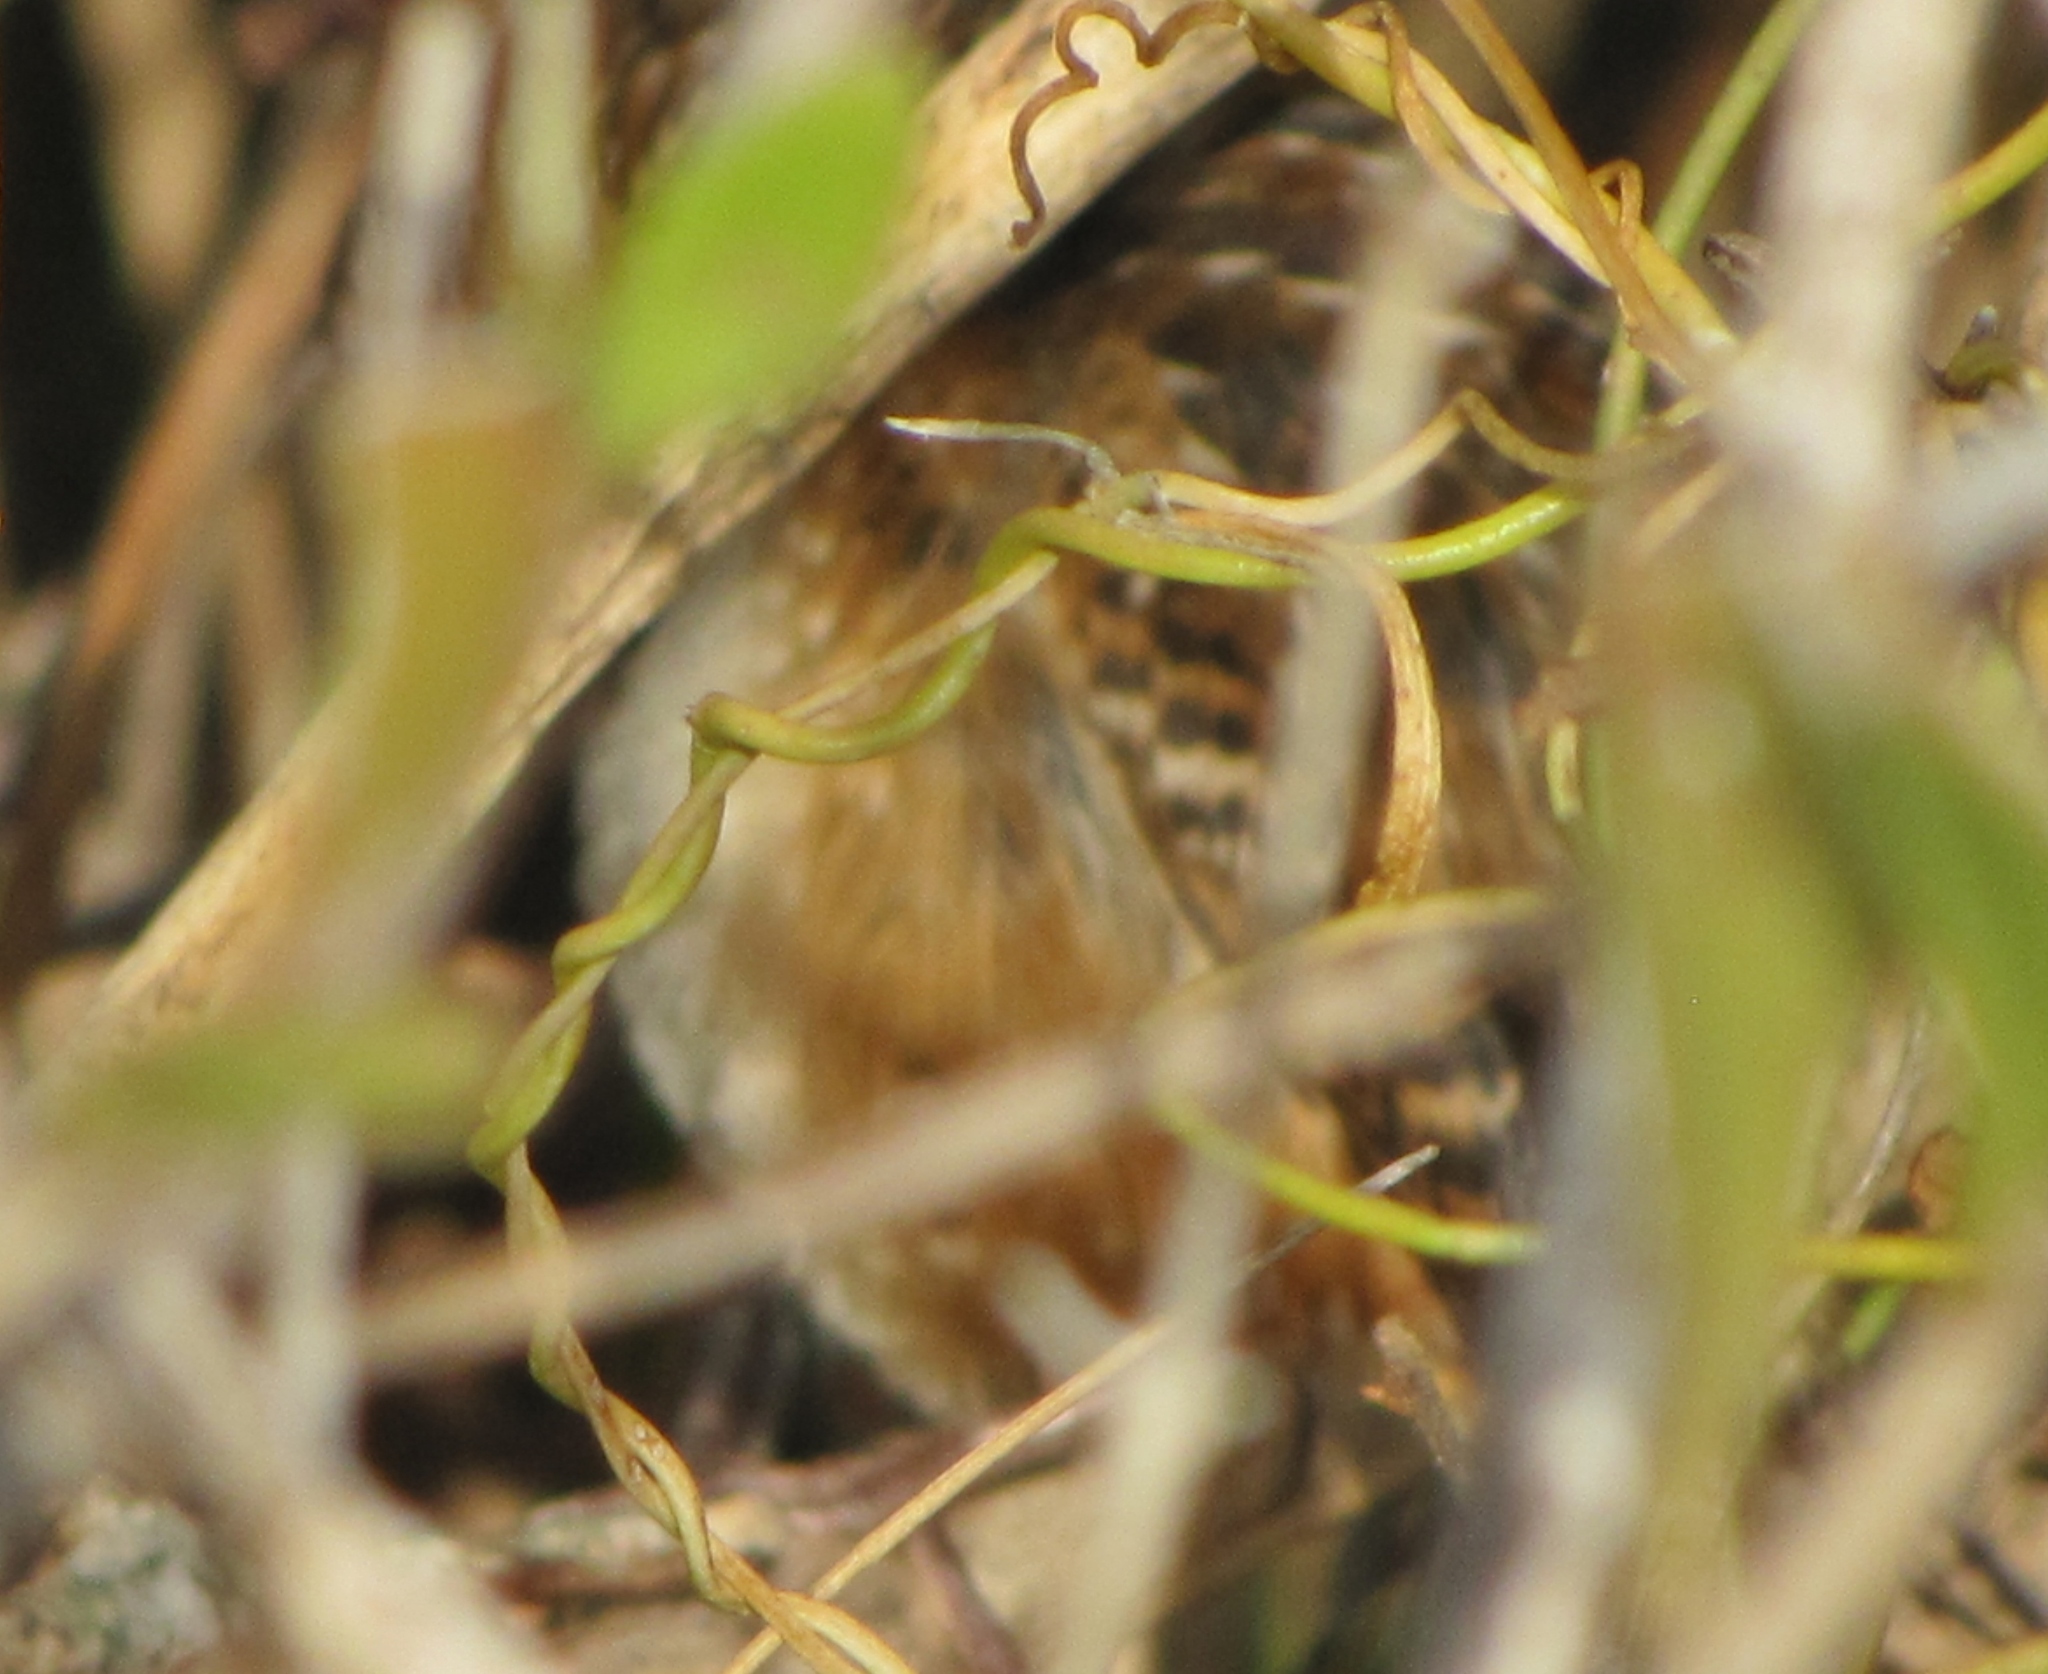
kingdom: Animalia
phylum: Chordata
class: Aves
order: Passeriformes
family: Troglodytidae
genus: Cistothorus
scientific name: Cistothorus palustris
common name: Marsh wren
